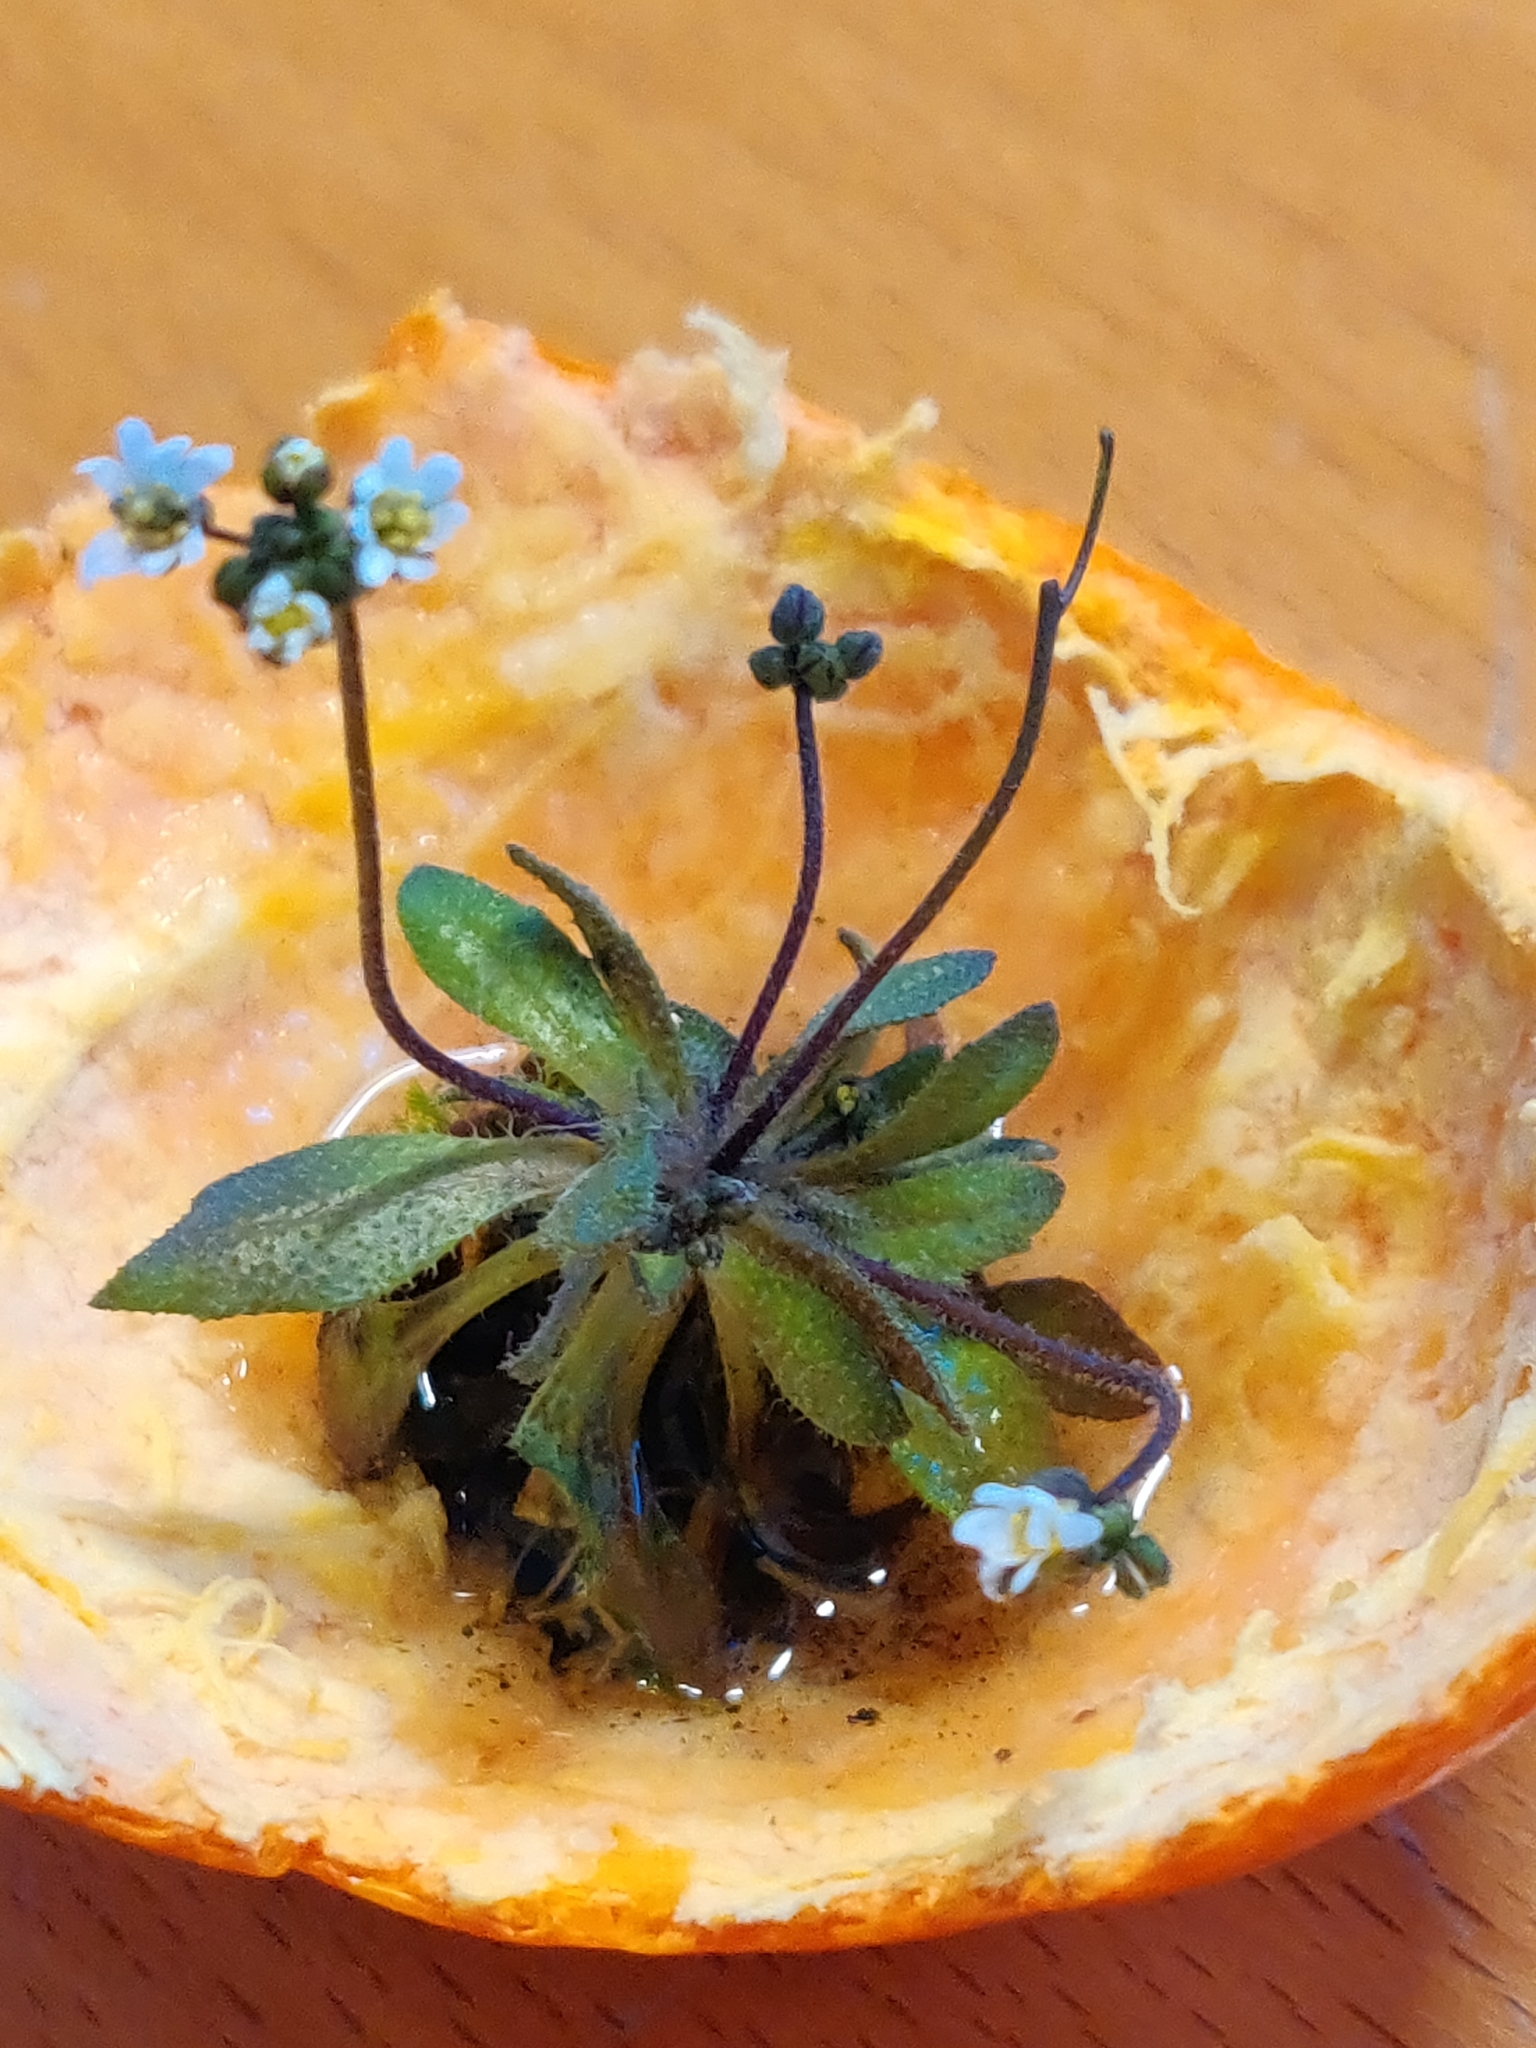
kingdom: Plantae
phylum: Tracheophyta
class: Magnoliopsida
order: Brassicales
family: Brassicaceae
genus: Draba
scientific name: Draba verna
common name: Spring draba
